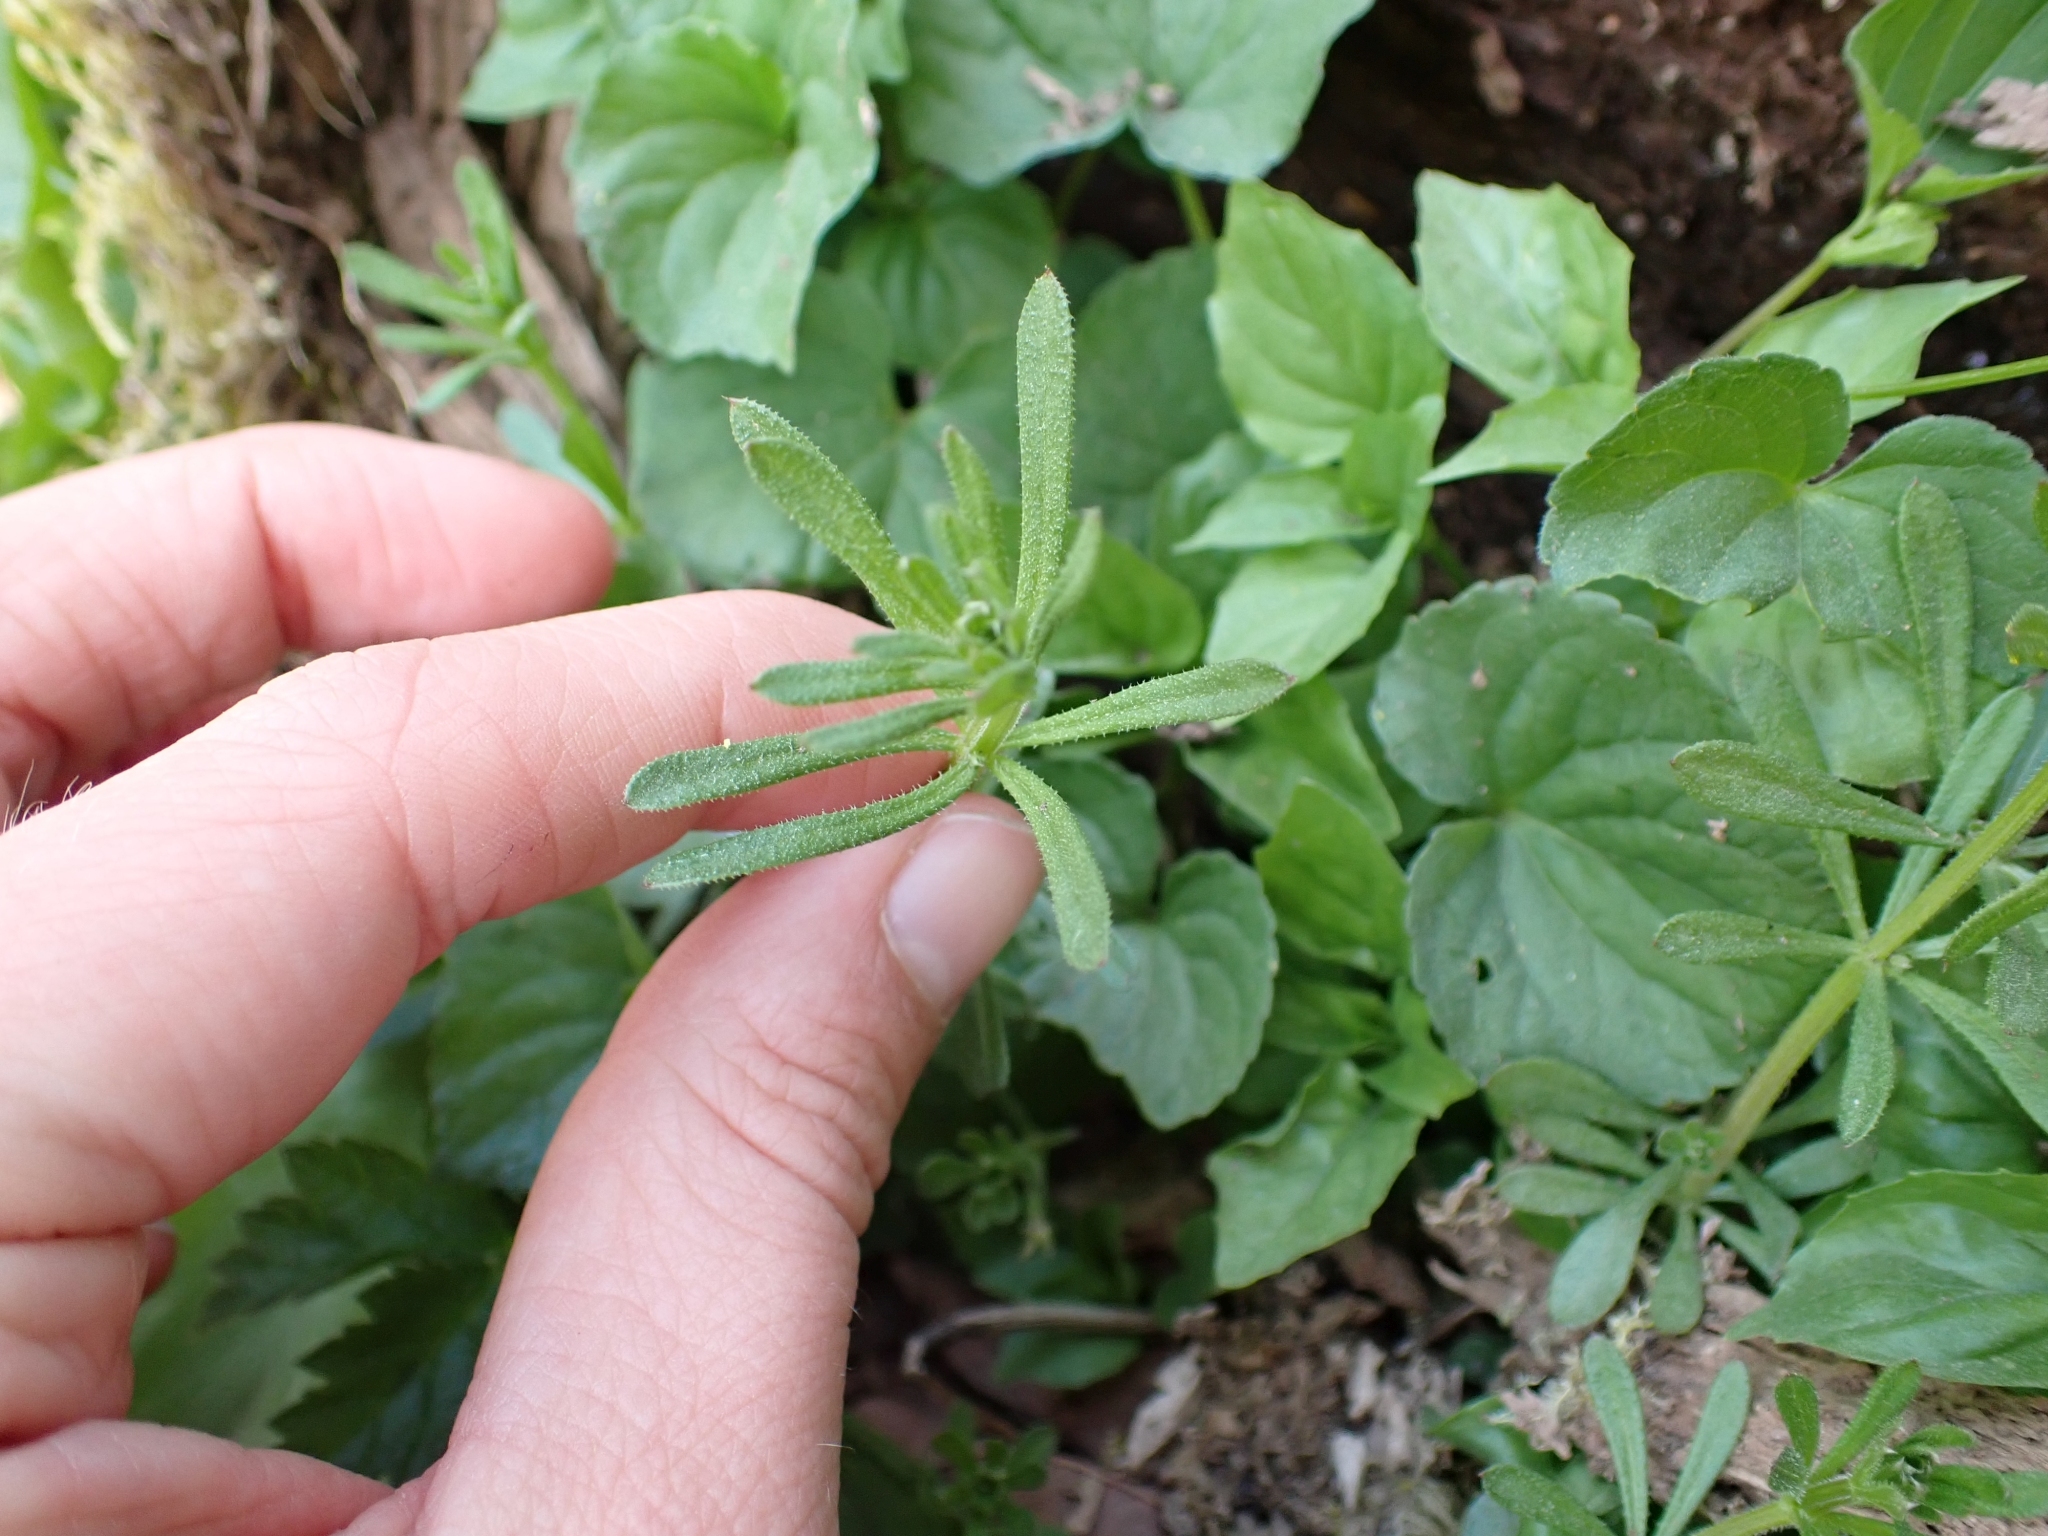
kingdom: Plantae
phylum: Tracheophyta
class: Magnoliopsida
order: Gentianales
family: Rubiaceae
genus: Galium
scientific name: Galium aparine
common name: Cleavers
